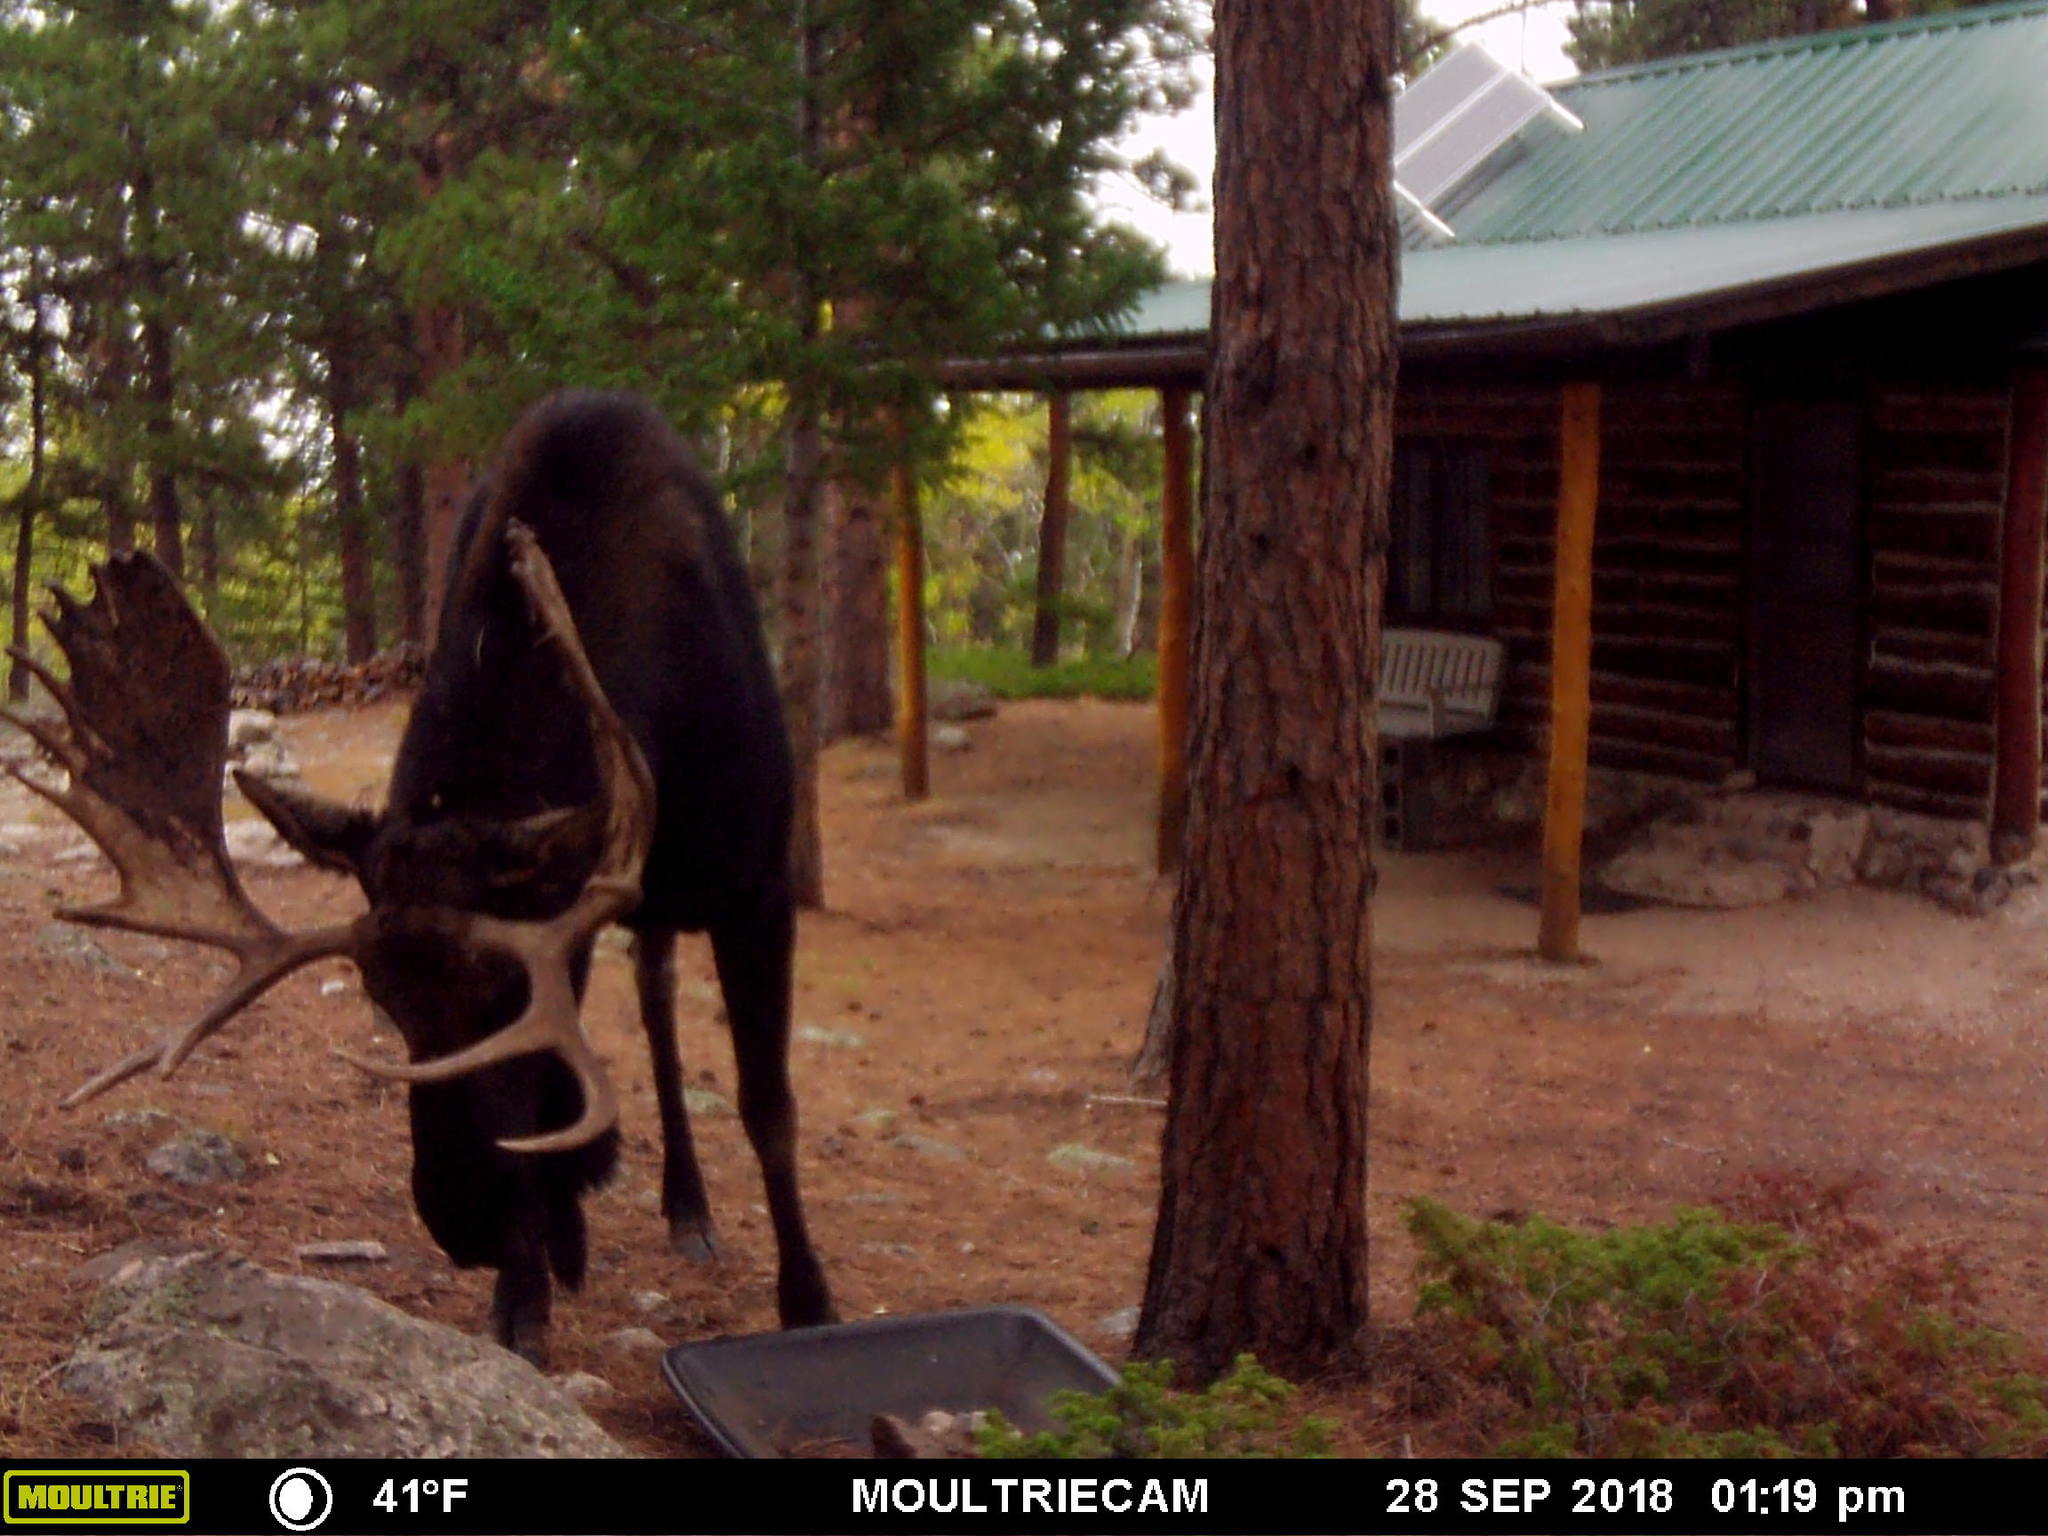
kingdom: Animalia
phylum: Chordata
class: Mammalia
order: Artiodactyla
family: Cervidae
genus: Alces
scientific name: Alces alces
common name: Moose
